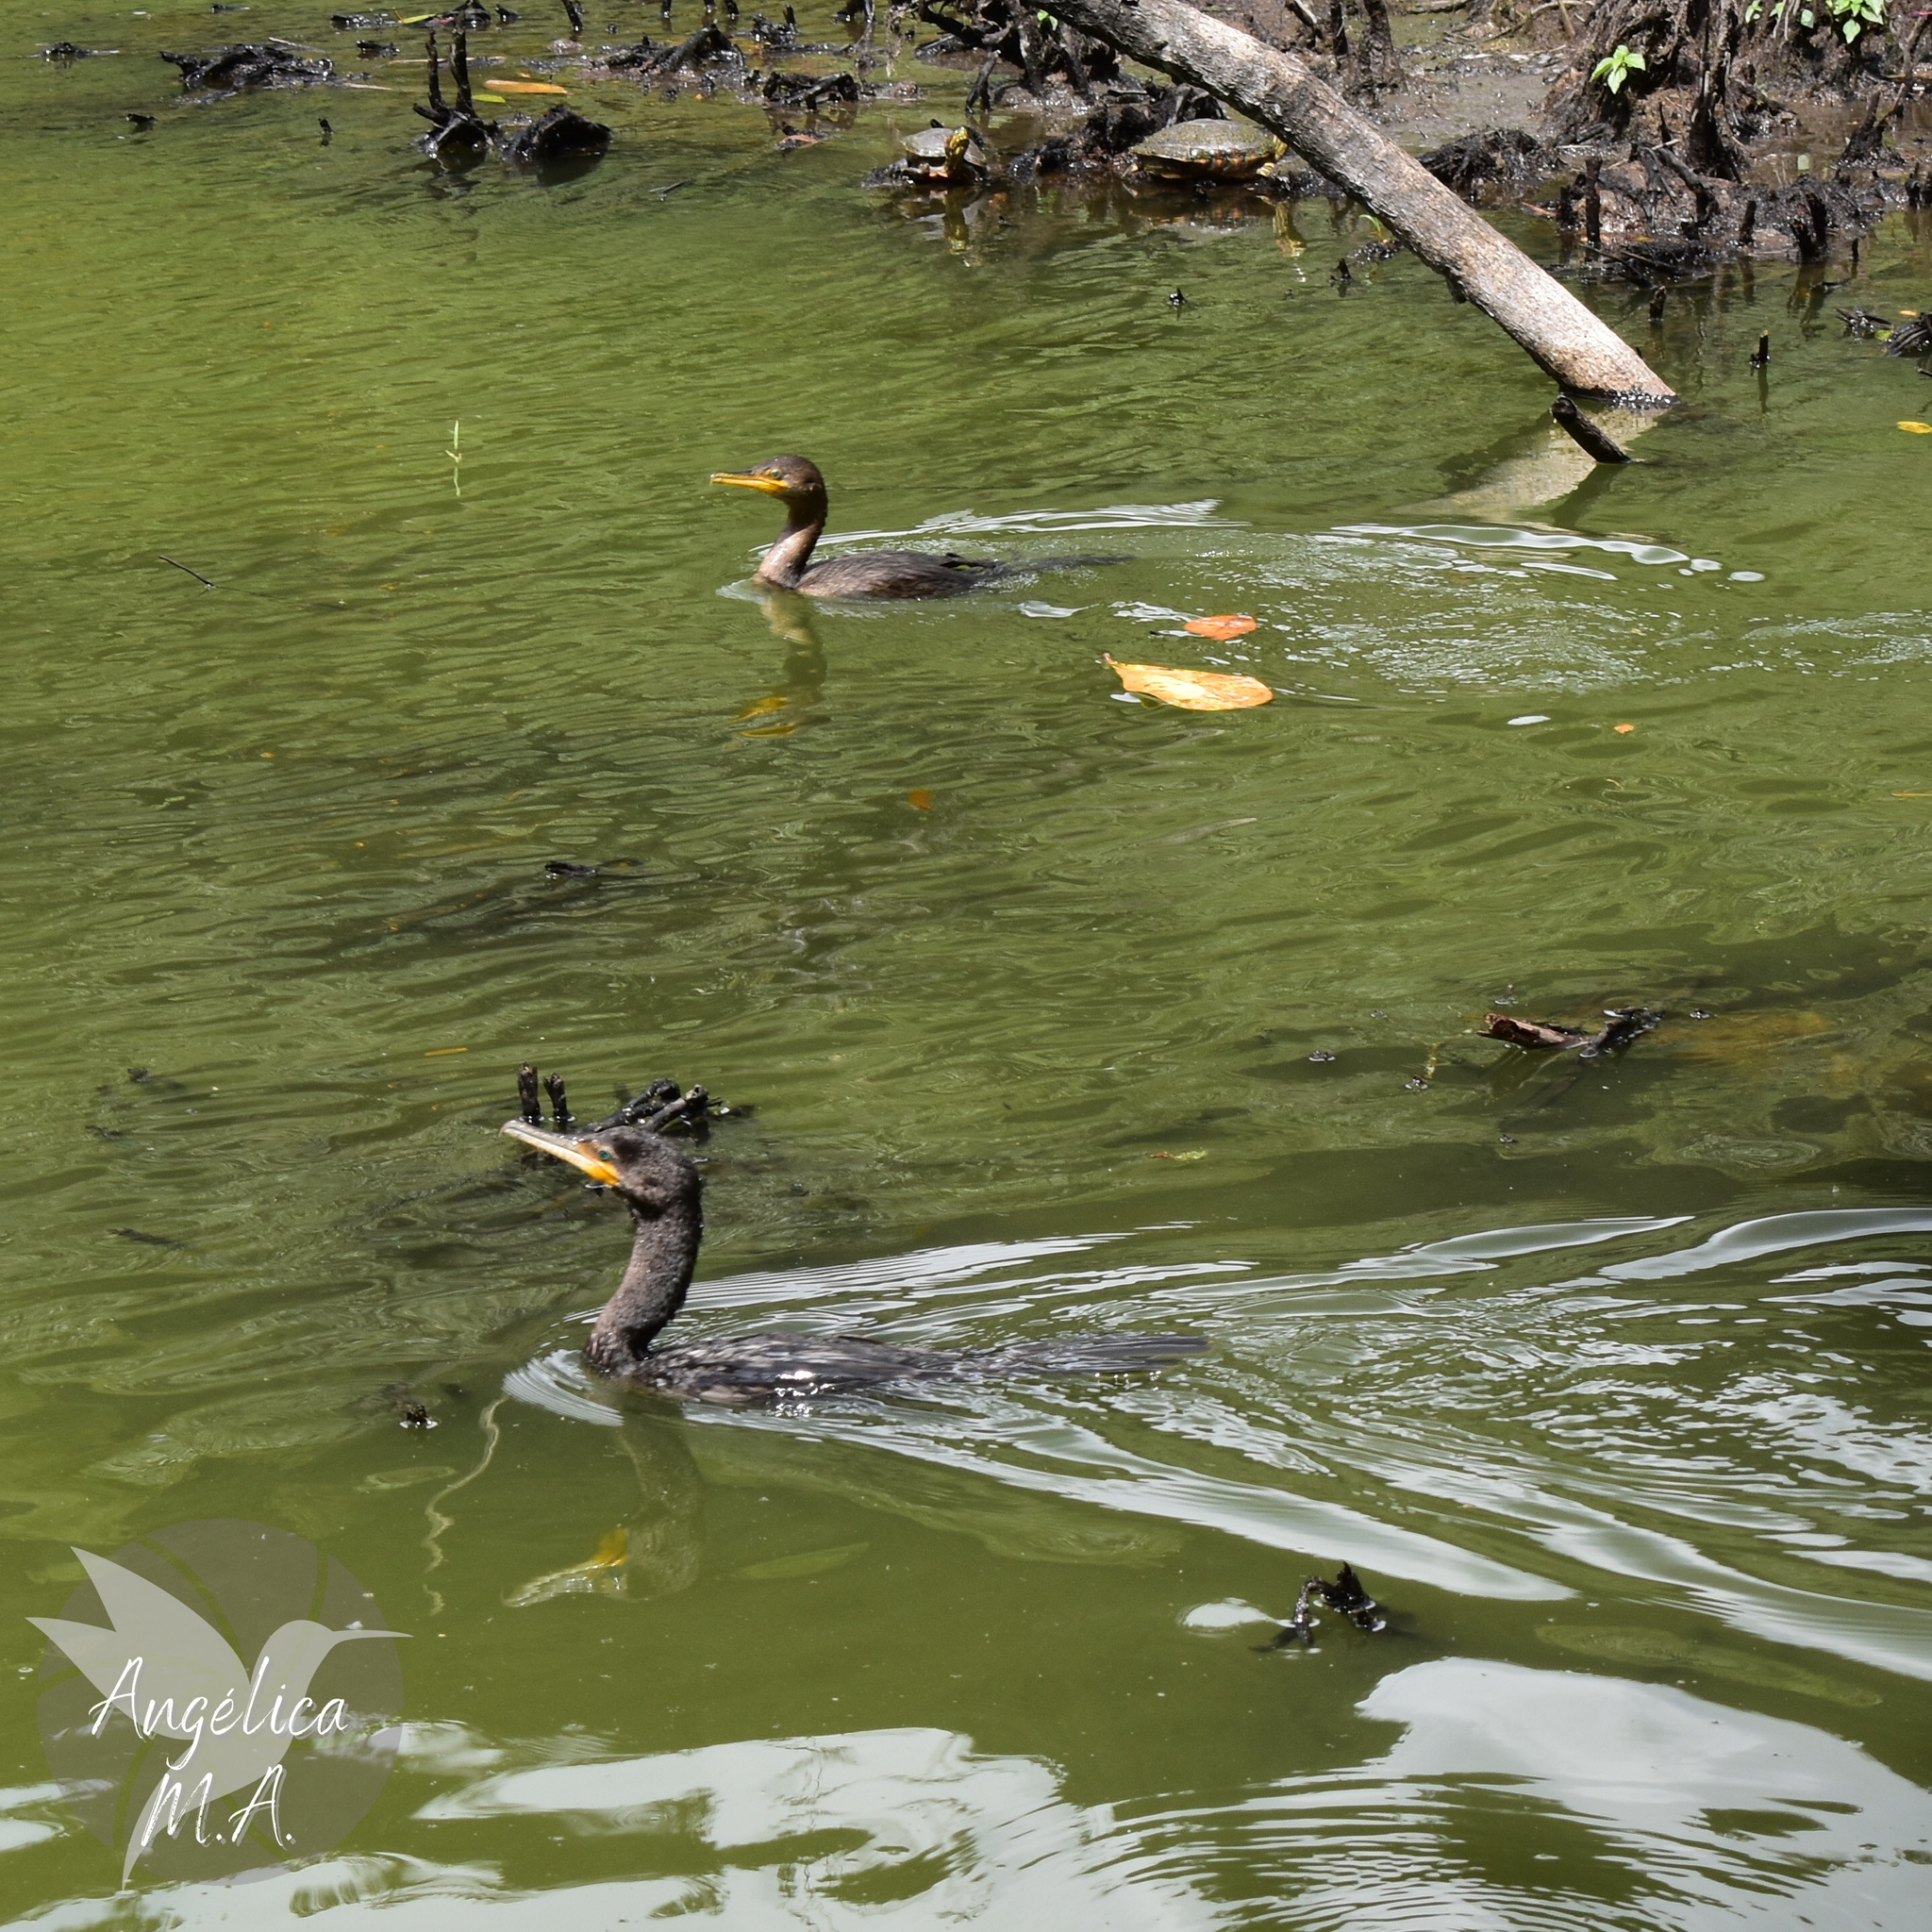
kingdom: Animalia
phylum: Chordata
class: Aves
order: Suliformes
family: Phalacrocoracidae
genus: Phalacrocorax
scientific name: Phalacrocorax brasilianus
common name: Neotropic cormorant
